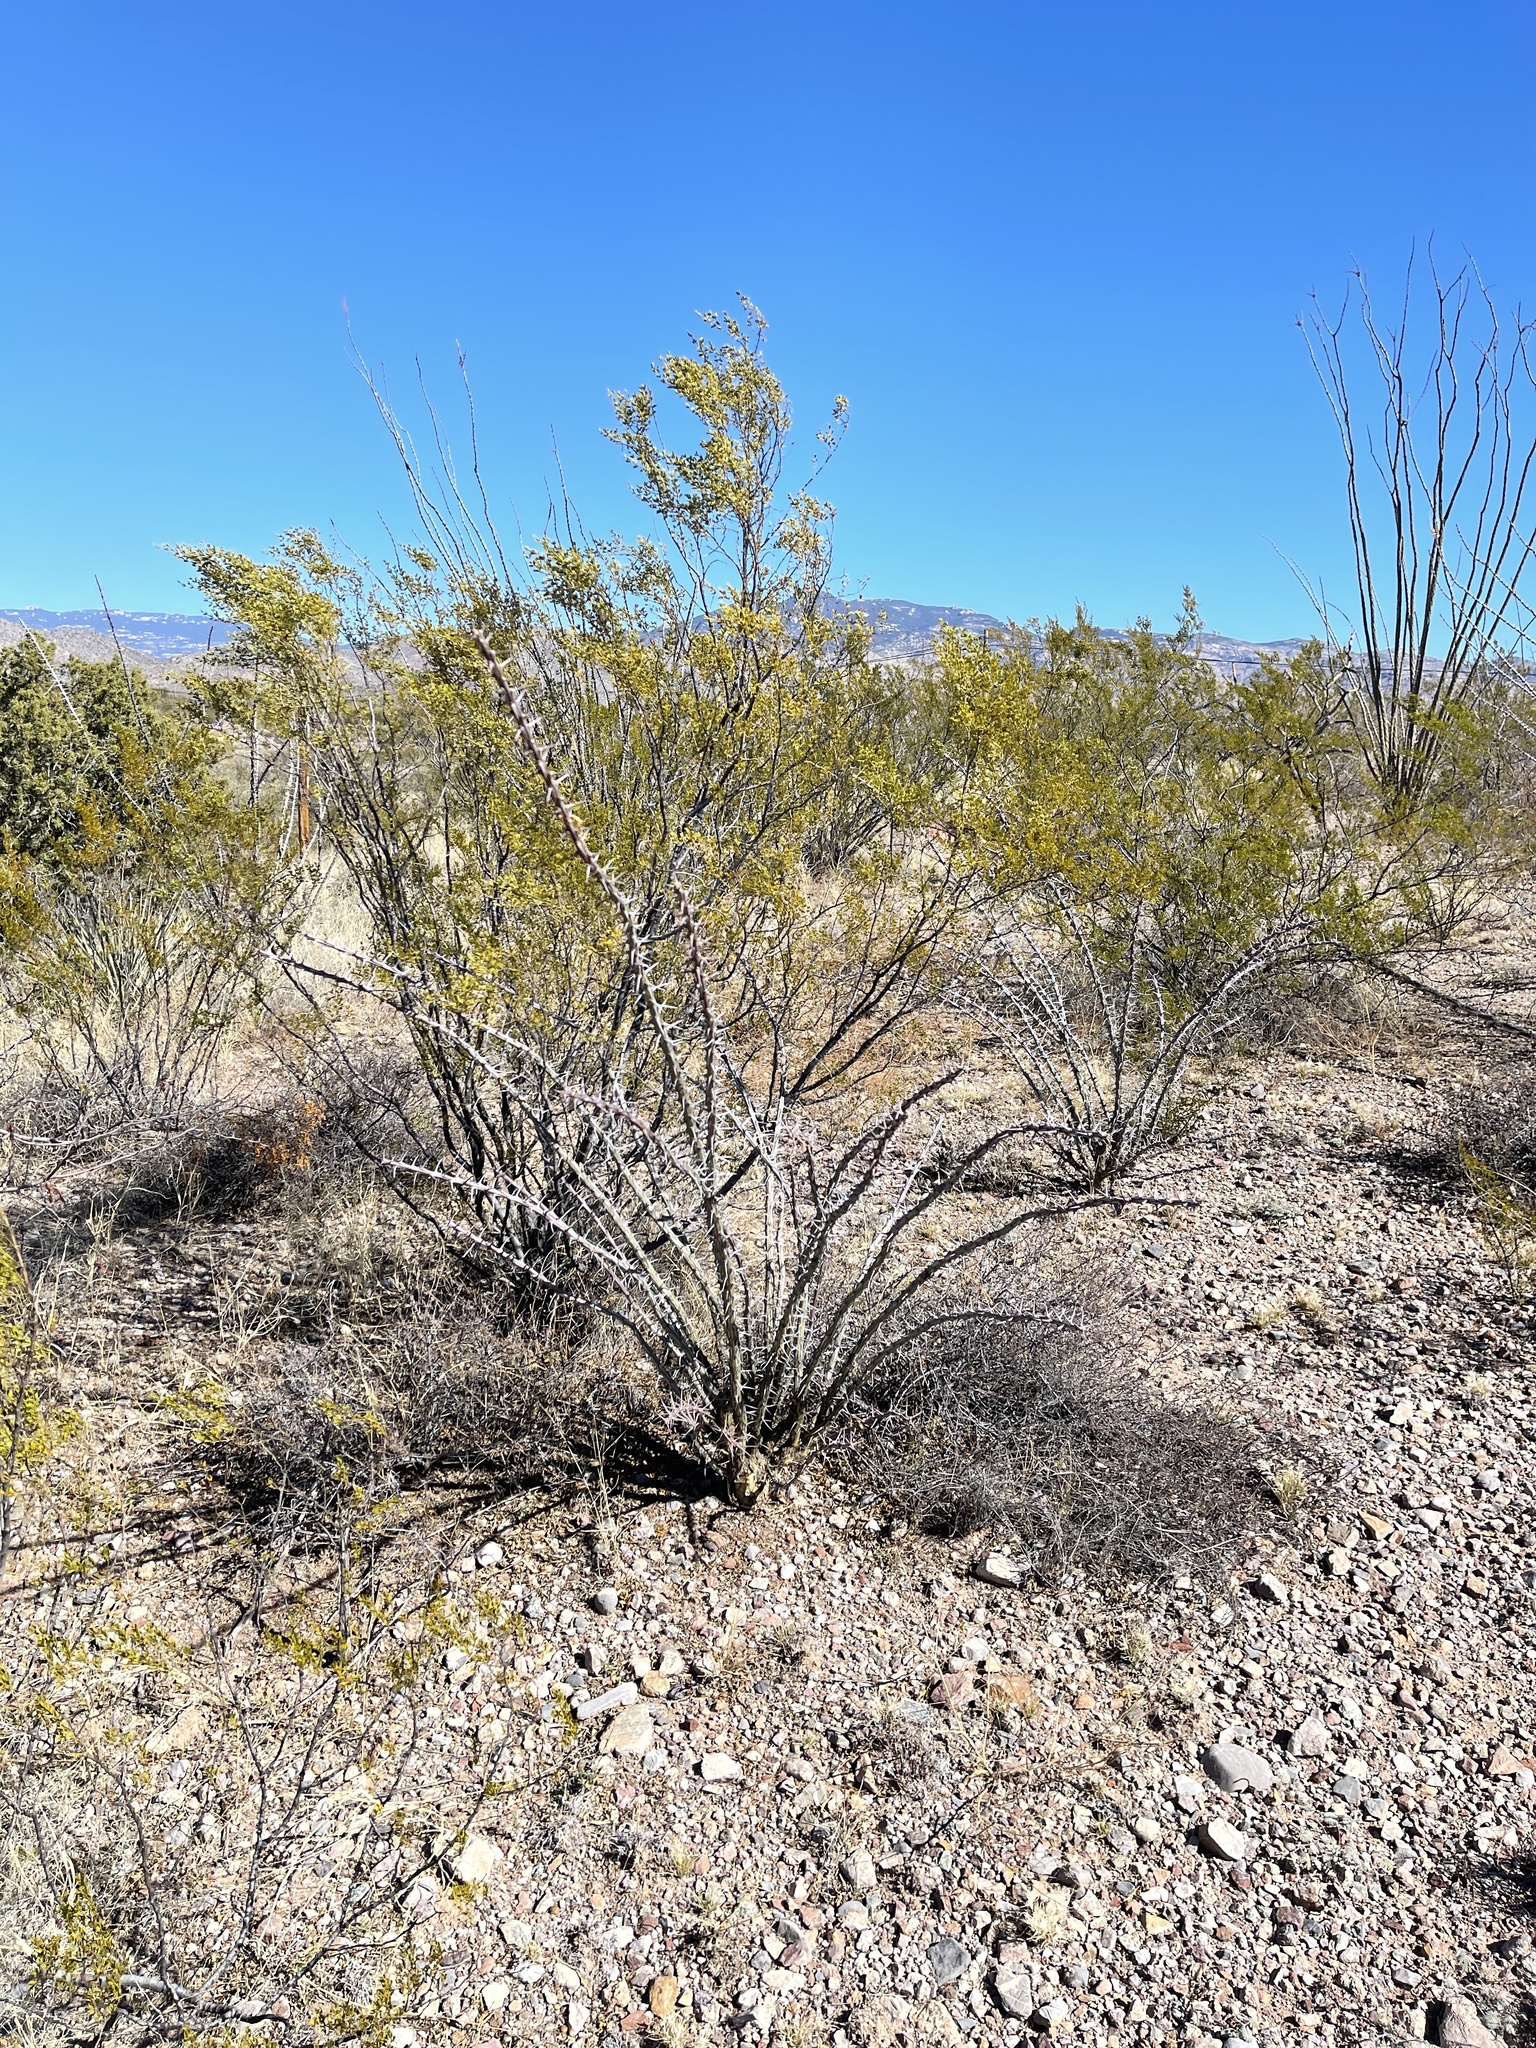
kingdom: Plantae
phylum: Tracheophyta
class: Magnoliopsida
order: Zygophyllales
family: Zygophyllaceae
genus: Larrea
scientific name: Larrea tridentata
